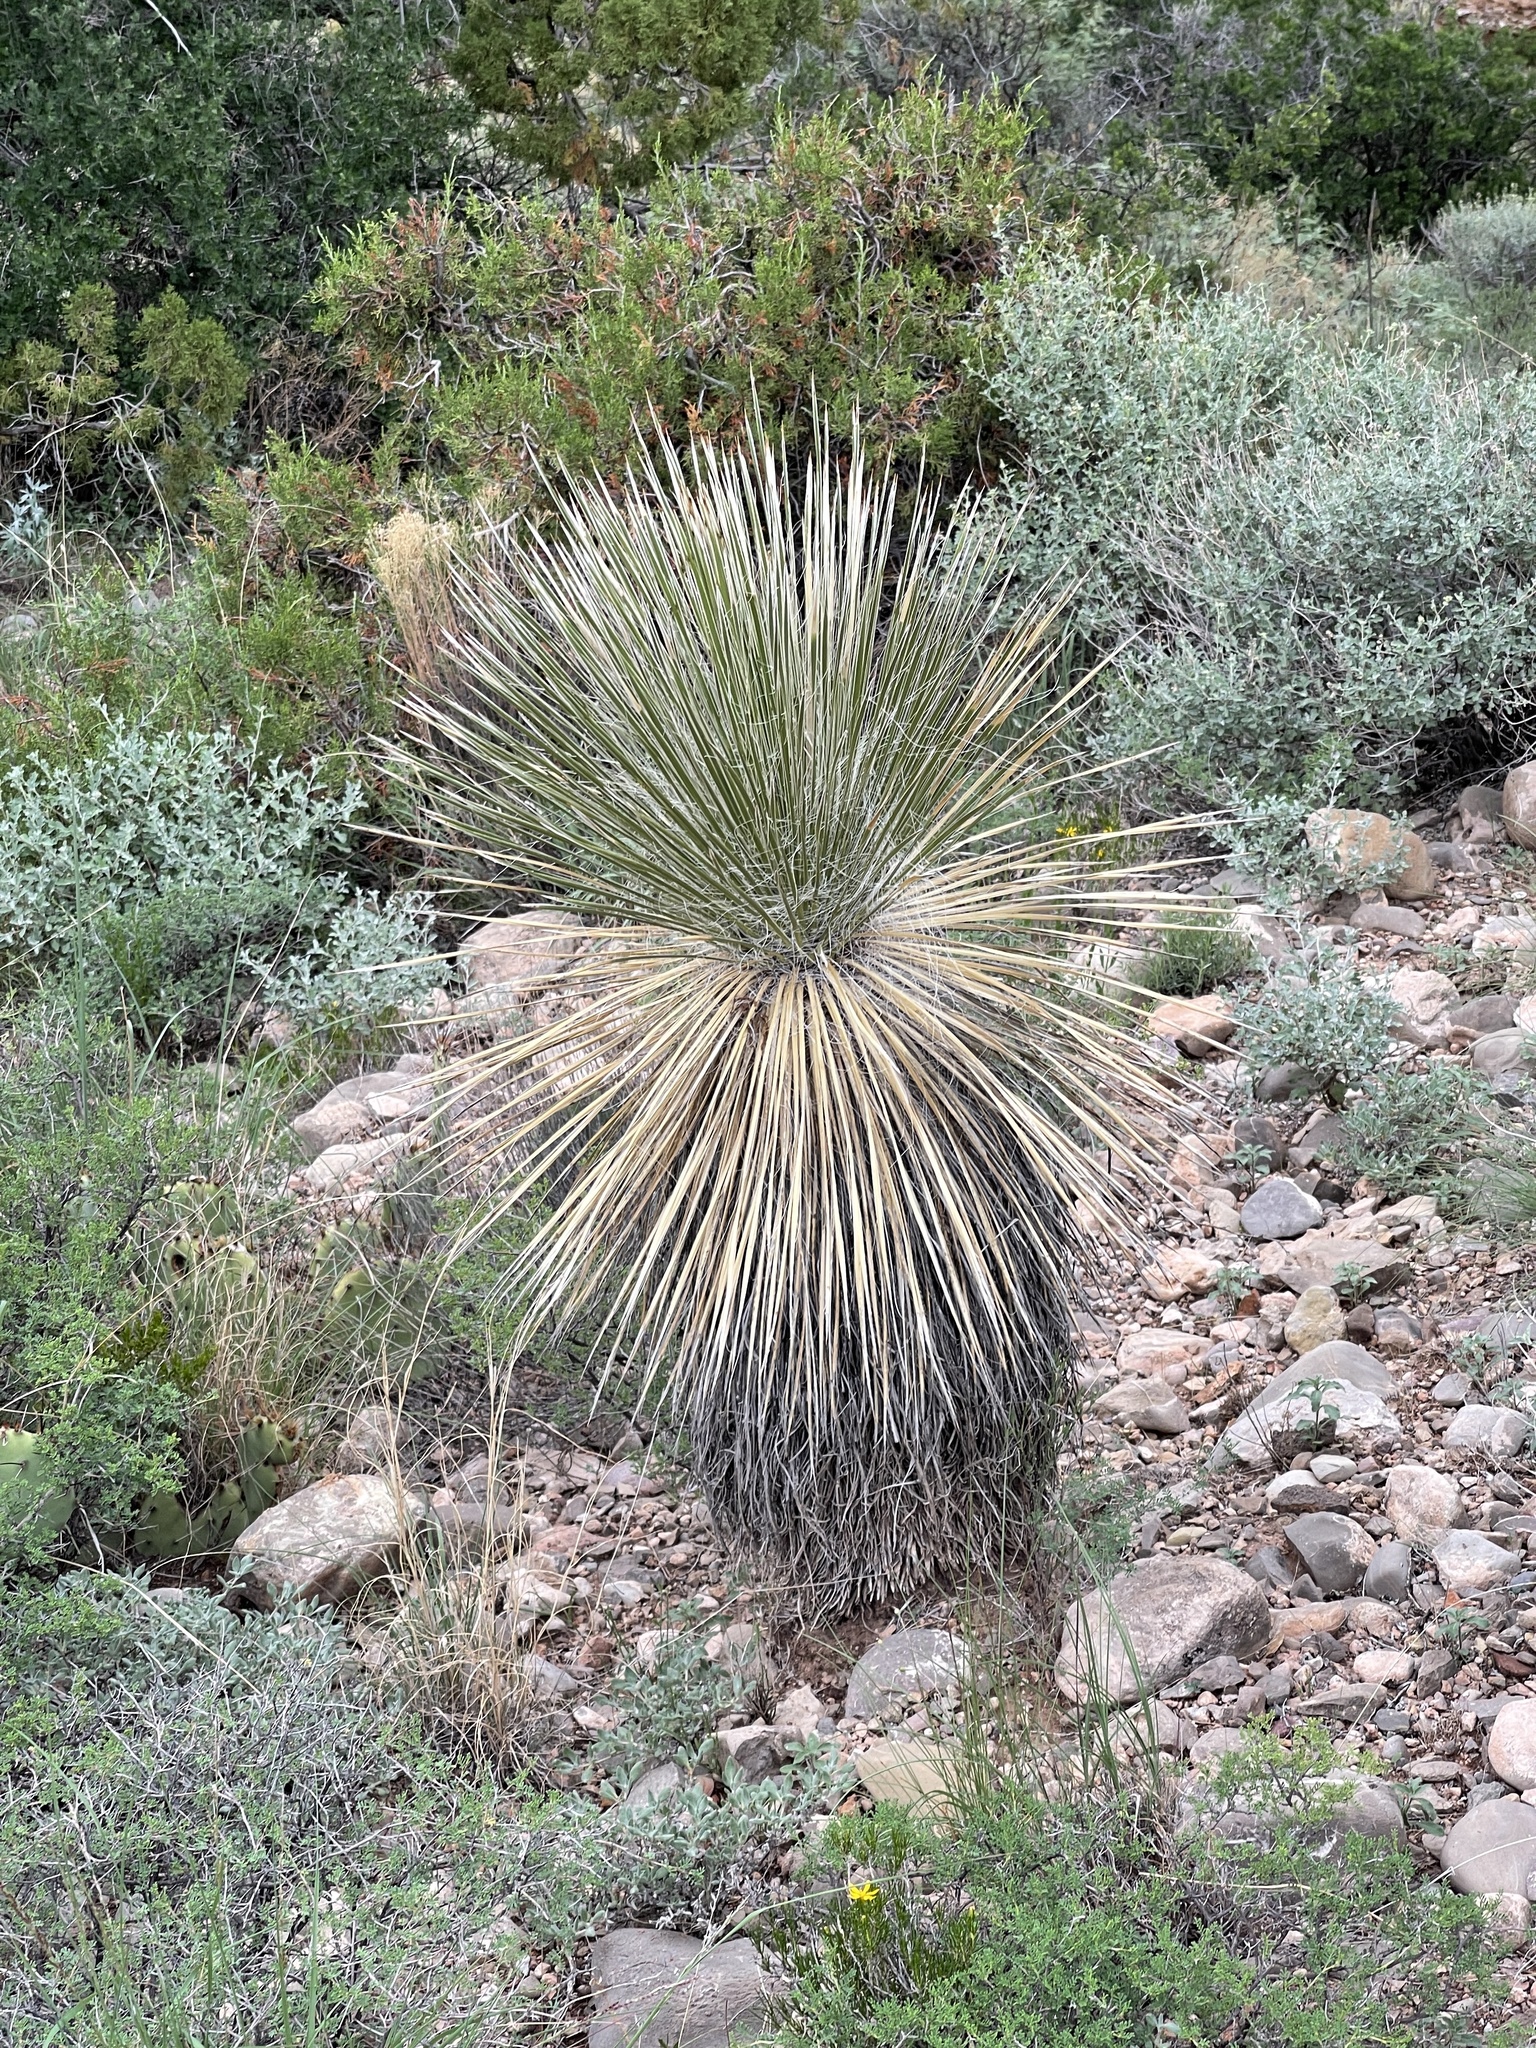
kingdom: Plantae
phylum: Tracheophyta
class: Liliopsida
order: Asparagales
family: Asparagaceae
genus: Yucca
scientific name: Yucca elata
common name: Palmella
